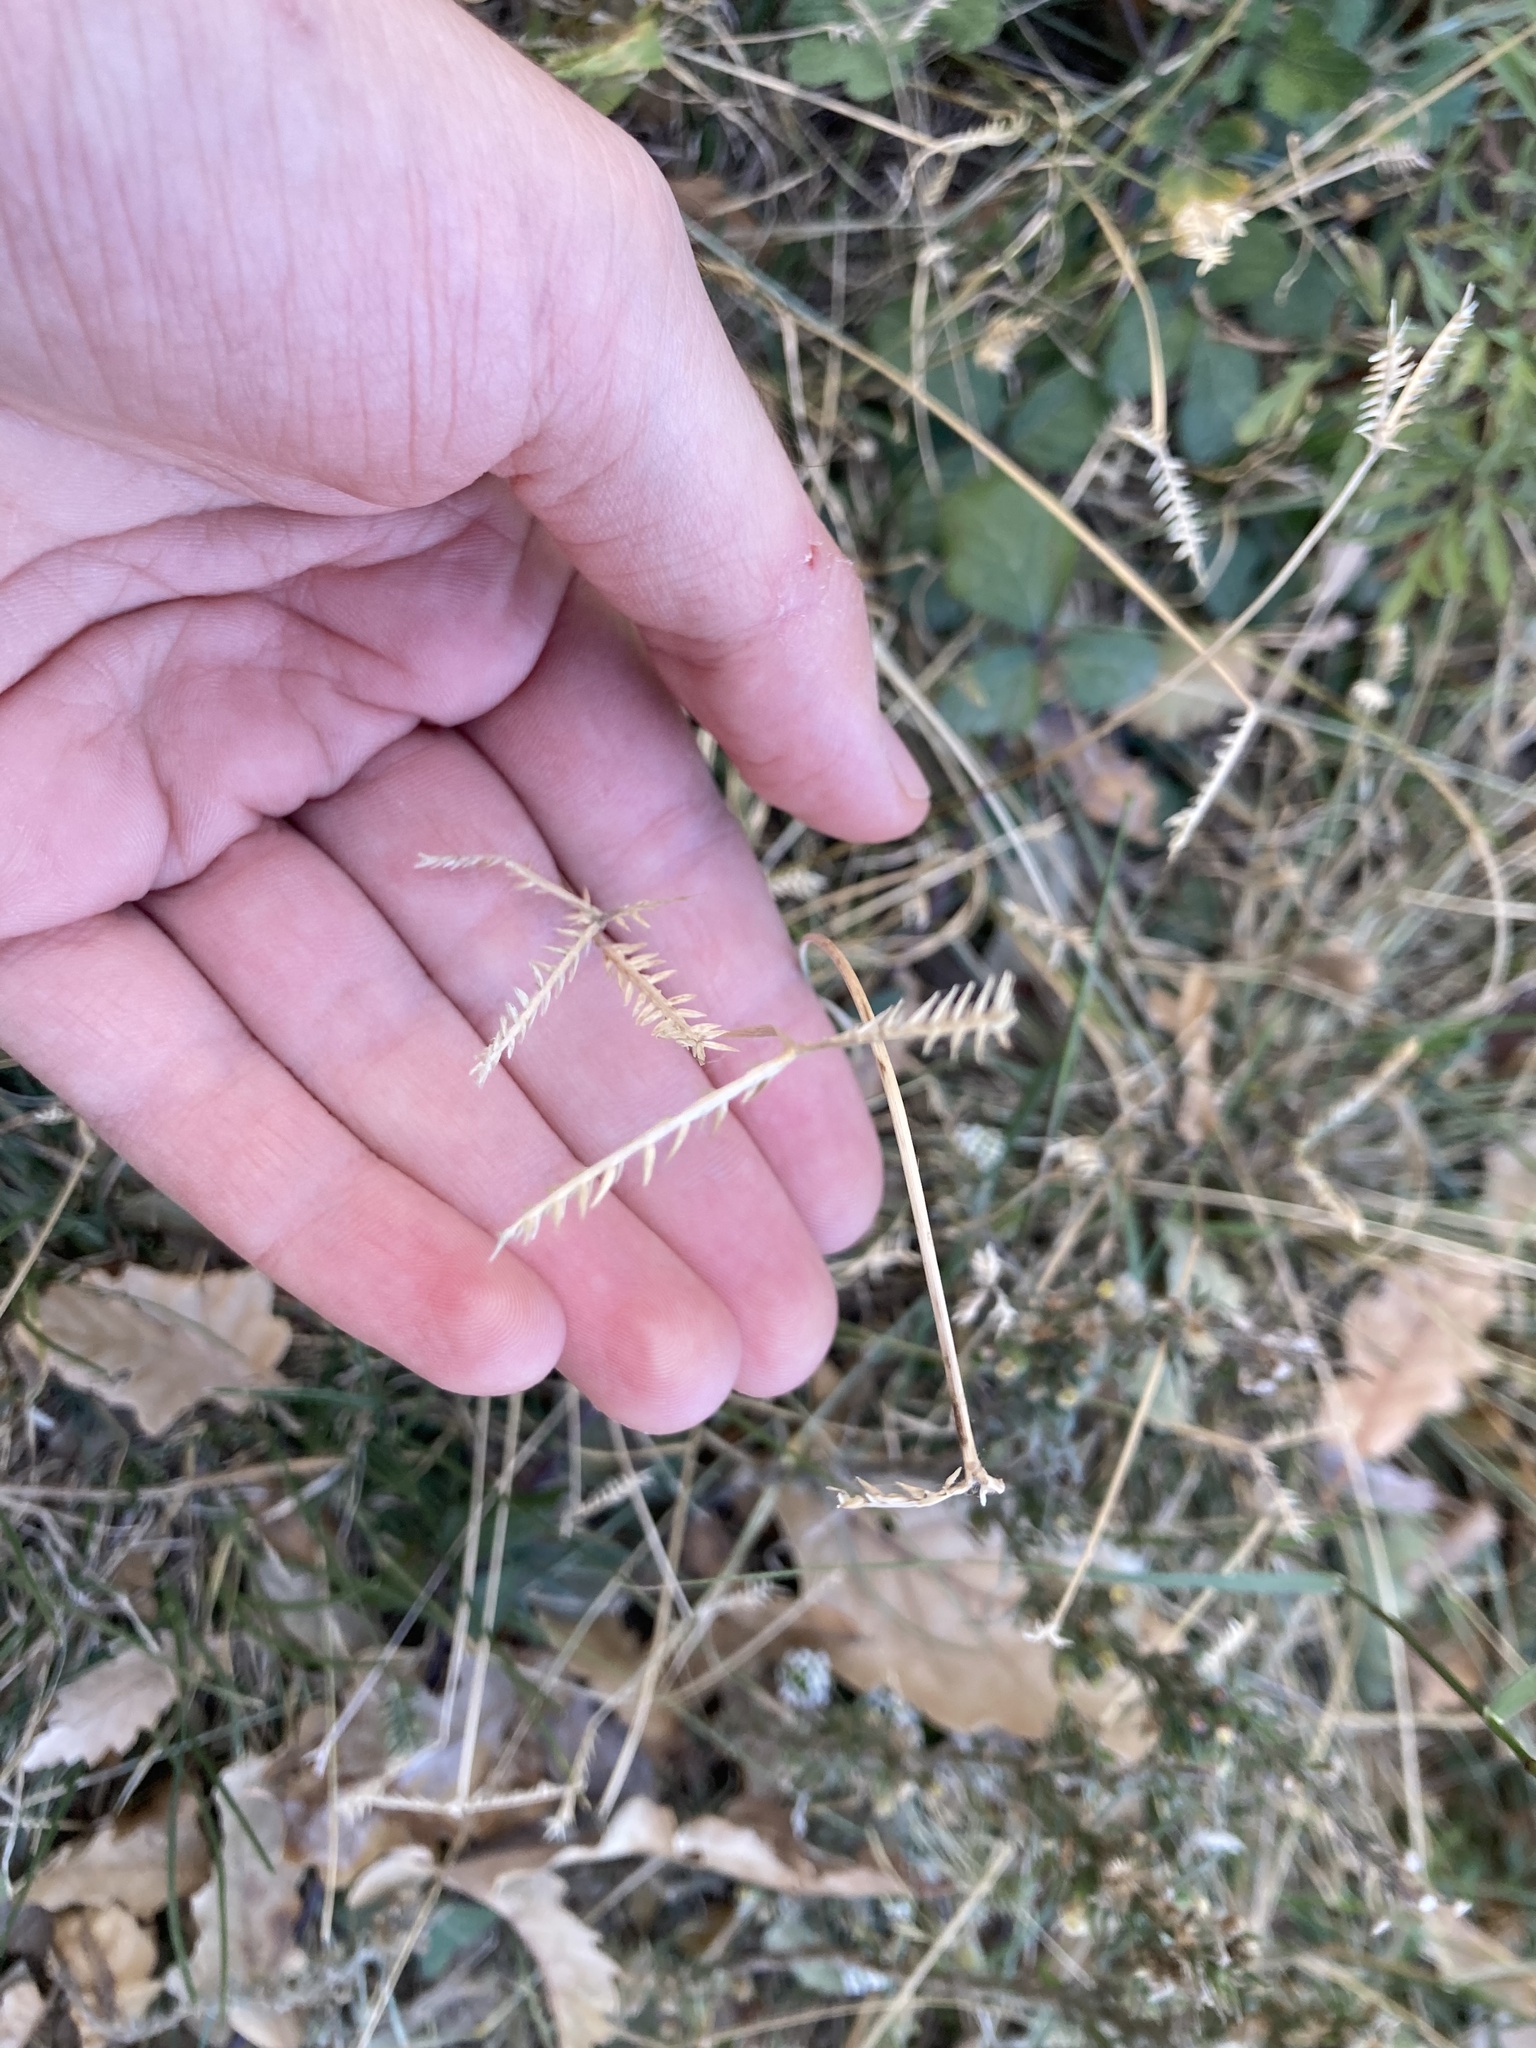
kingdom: Plantae
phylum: Tracheophyta
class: Liliopsida
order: Poales
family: Poaceae
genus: Eleusine
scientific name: Eleusine tristachya
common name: American yard-grass
